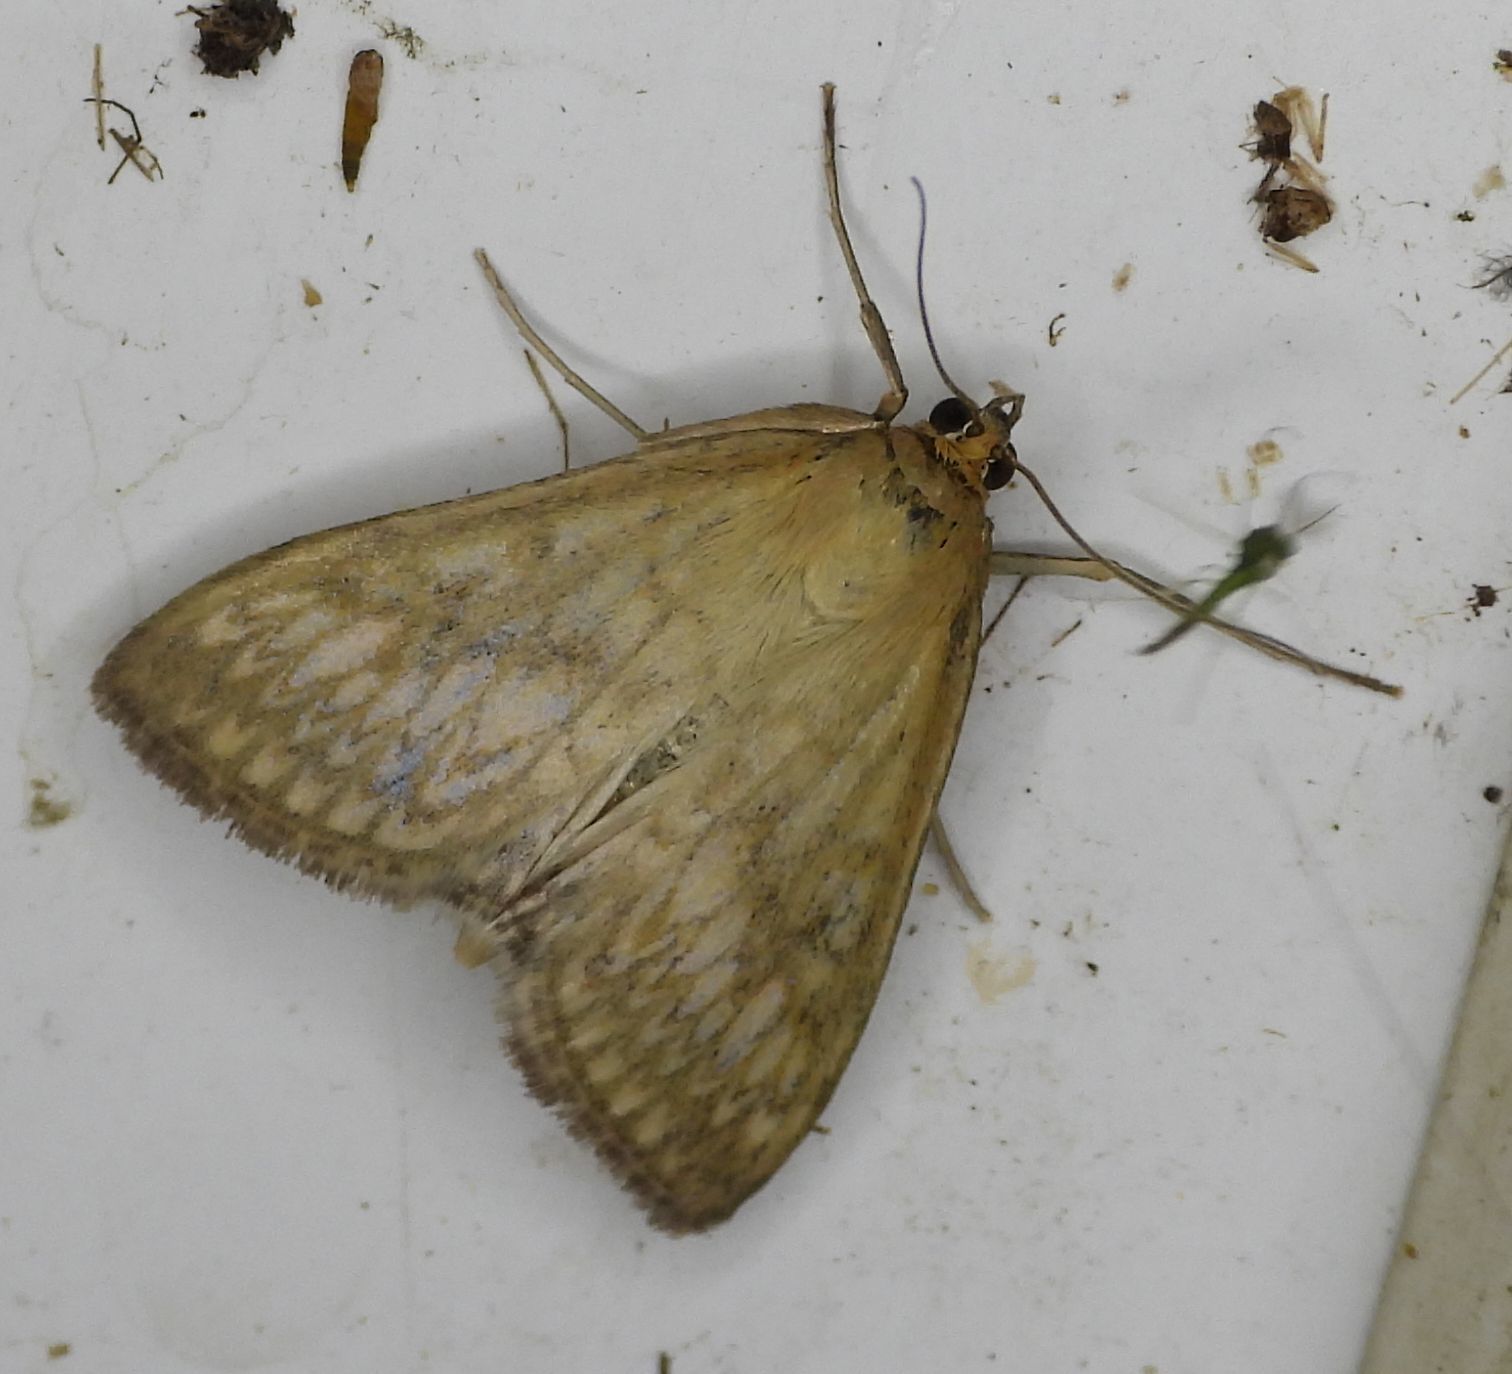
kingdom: Animalia
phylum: Arthropoda
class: Insecta
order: Lepidoptera
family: Crambidae
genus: Sitochroa
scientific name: Sitochroa chortalis
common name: Dimorphic sitochroa moth
